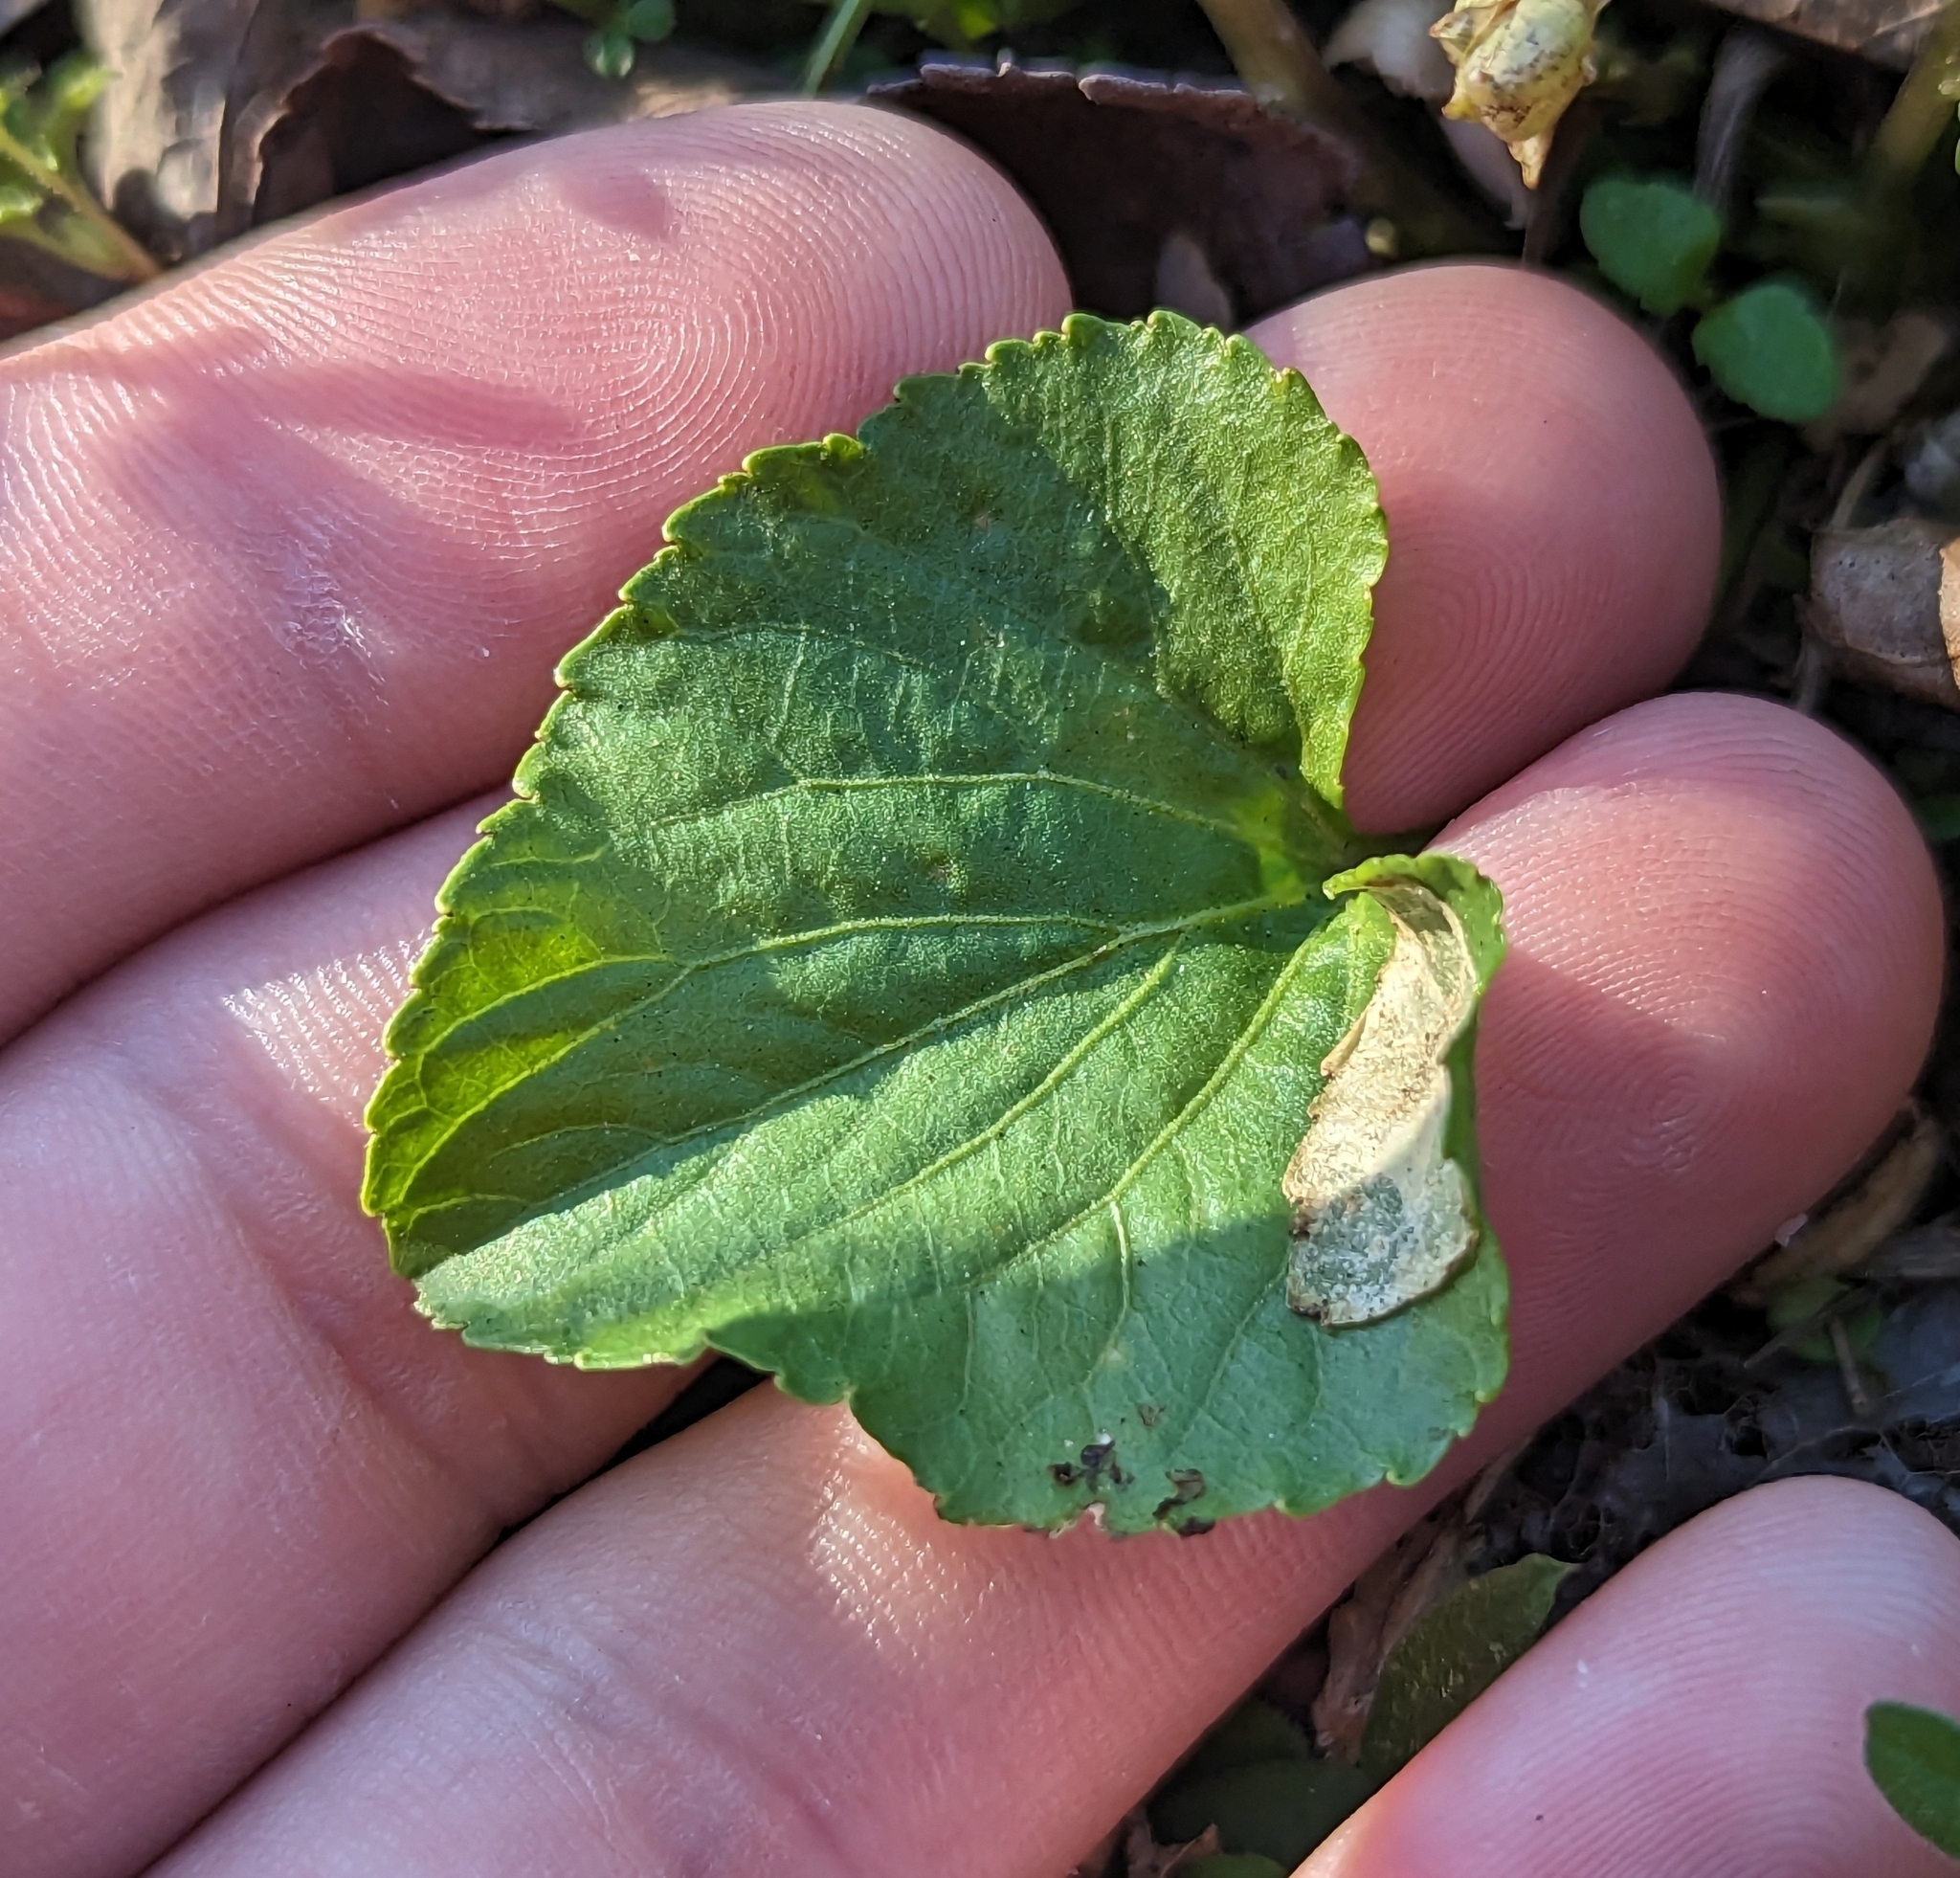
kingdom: Plantae
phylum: Tracheophyta
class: Magnoliopsida
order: Malpighiales
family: Violaceae
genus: Viola
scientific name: Viola sororia
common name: Dooryard violet
